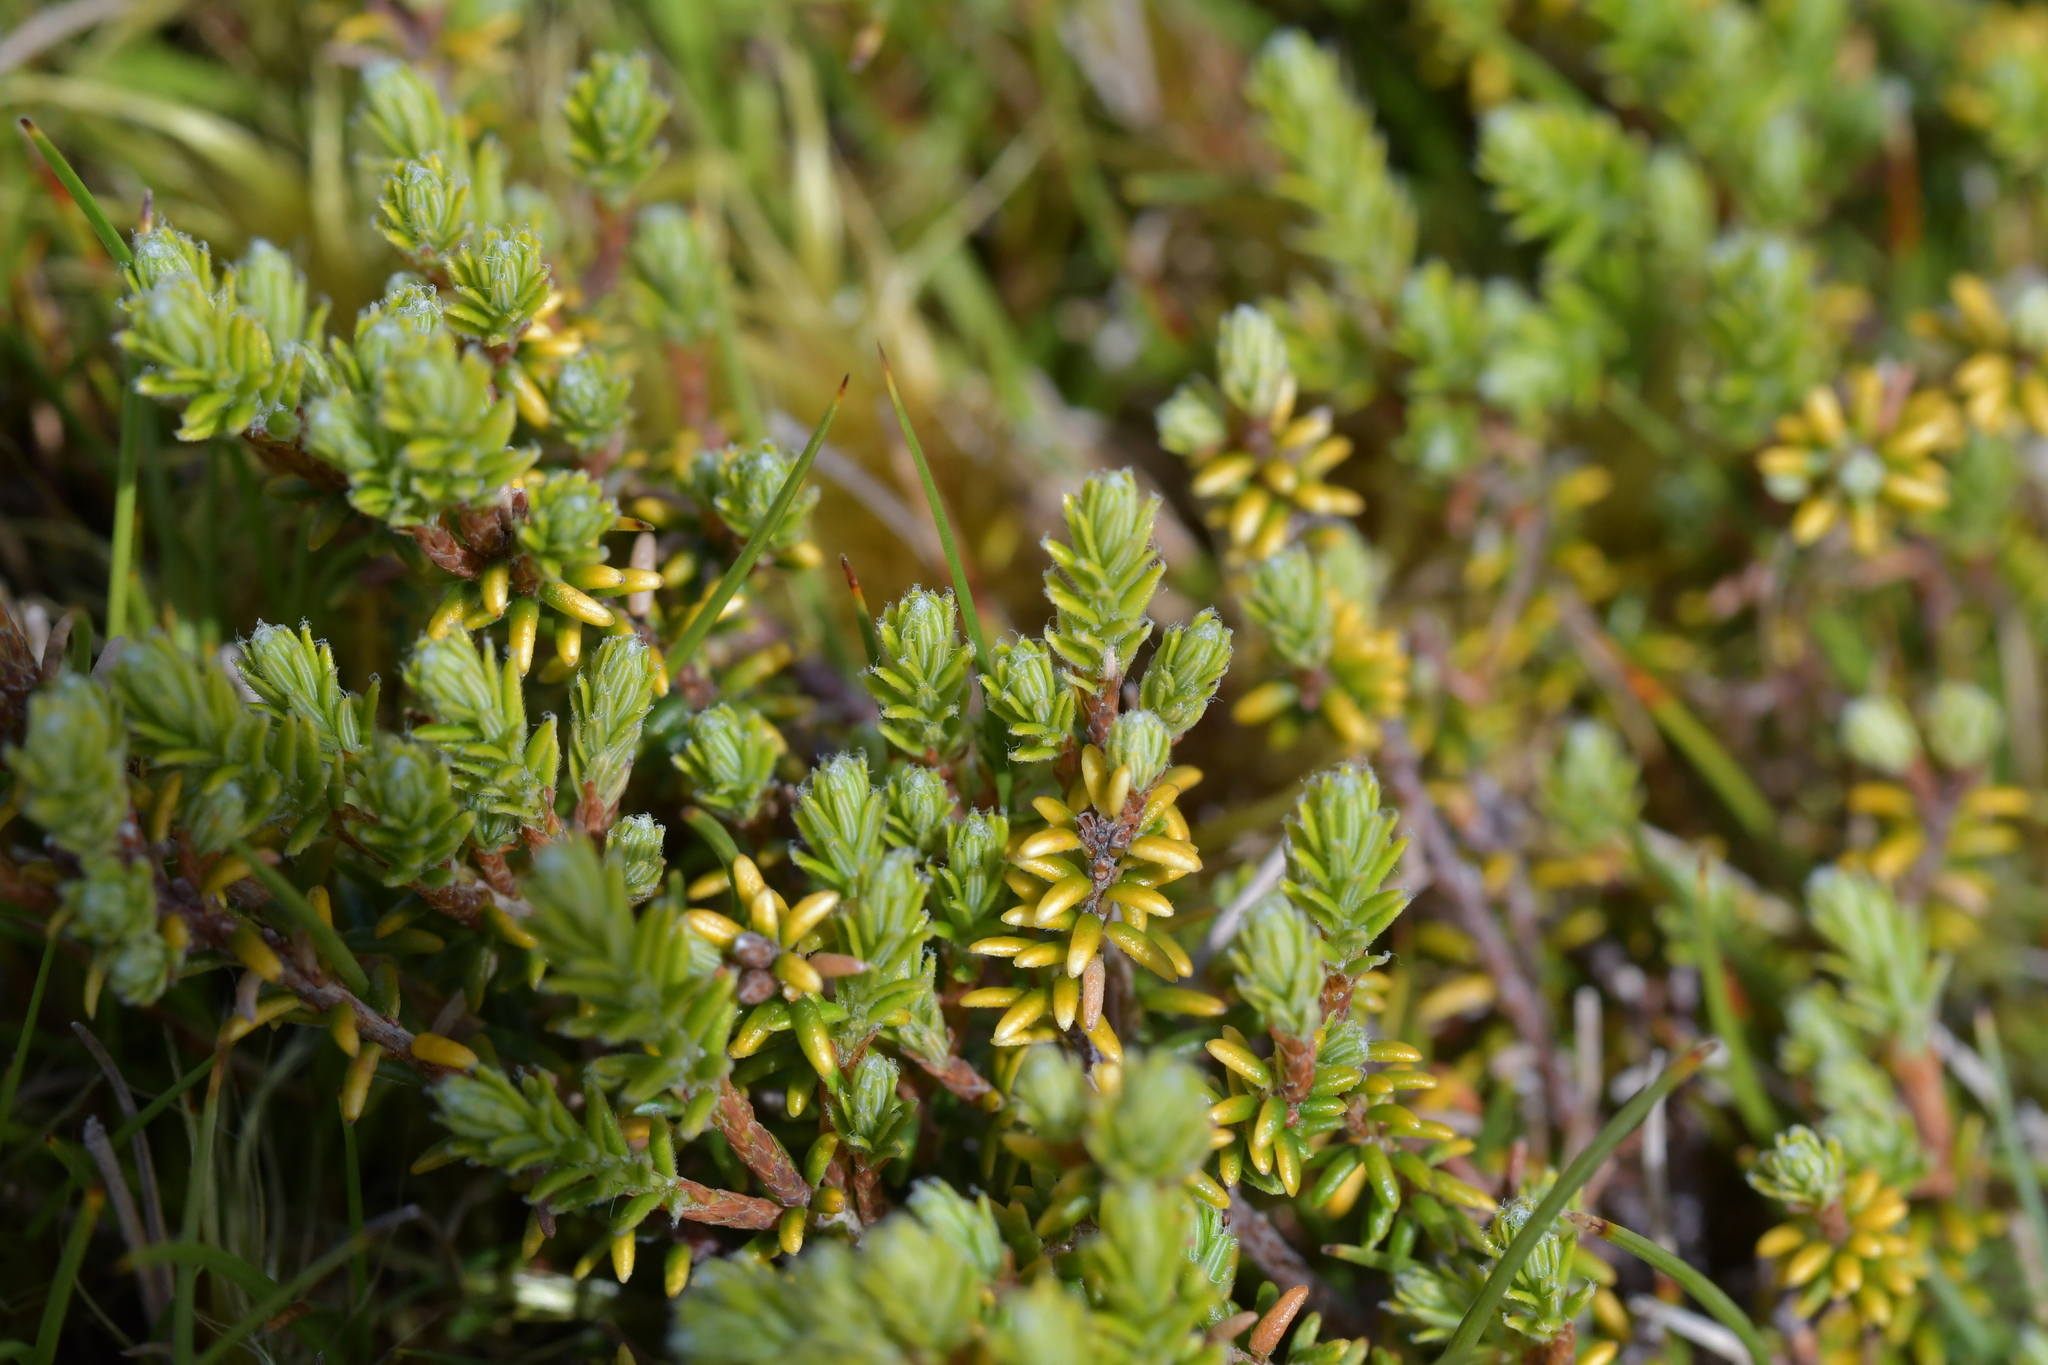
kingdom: Plantae
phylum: Tracheophyta
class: Magnoliopsida
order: Ericales
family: Ericaceae
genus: Androstoma
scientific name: Androstoma empetrifolia
